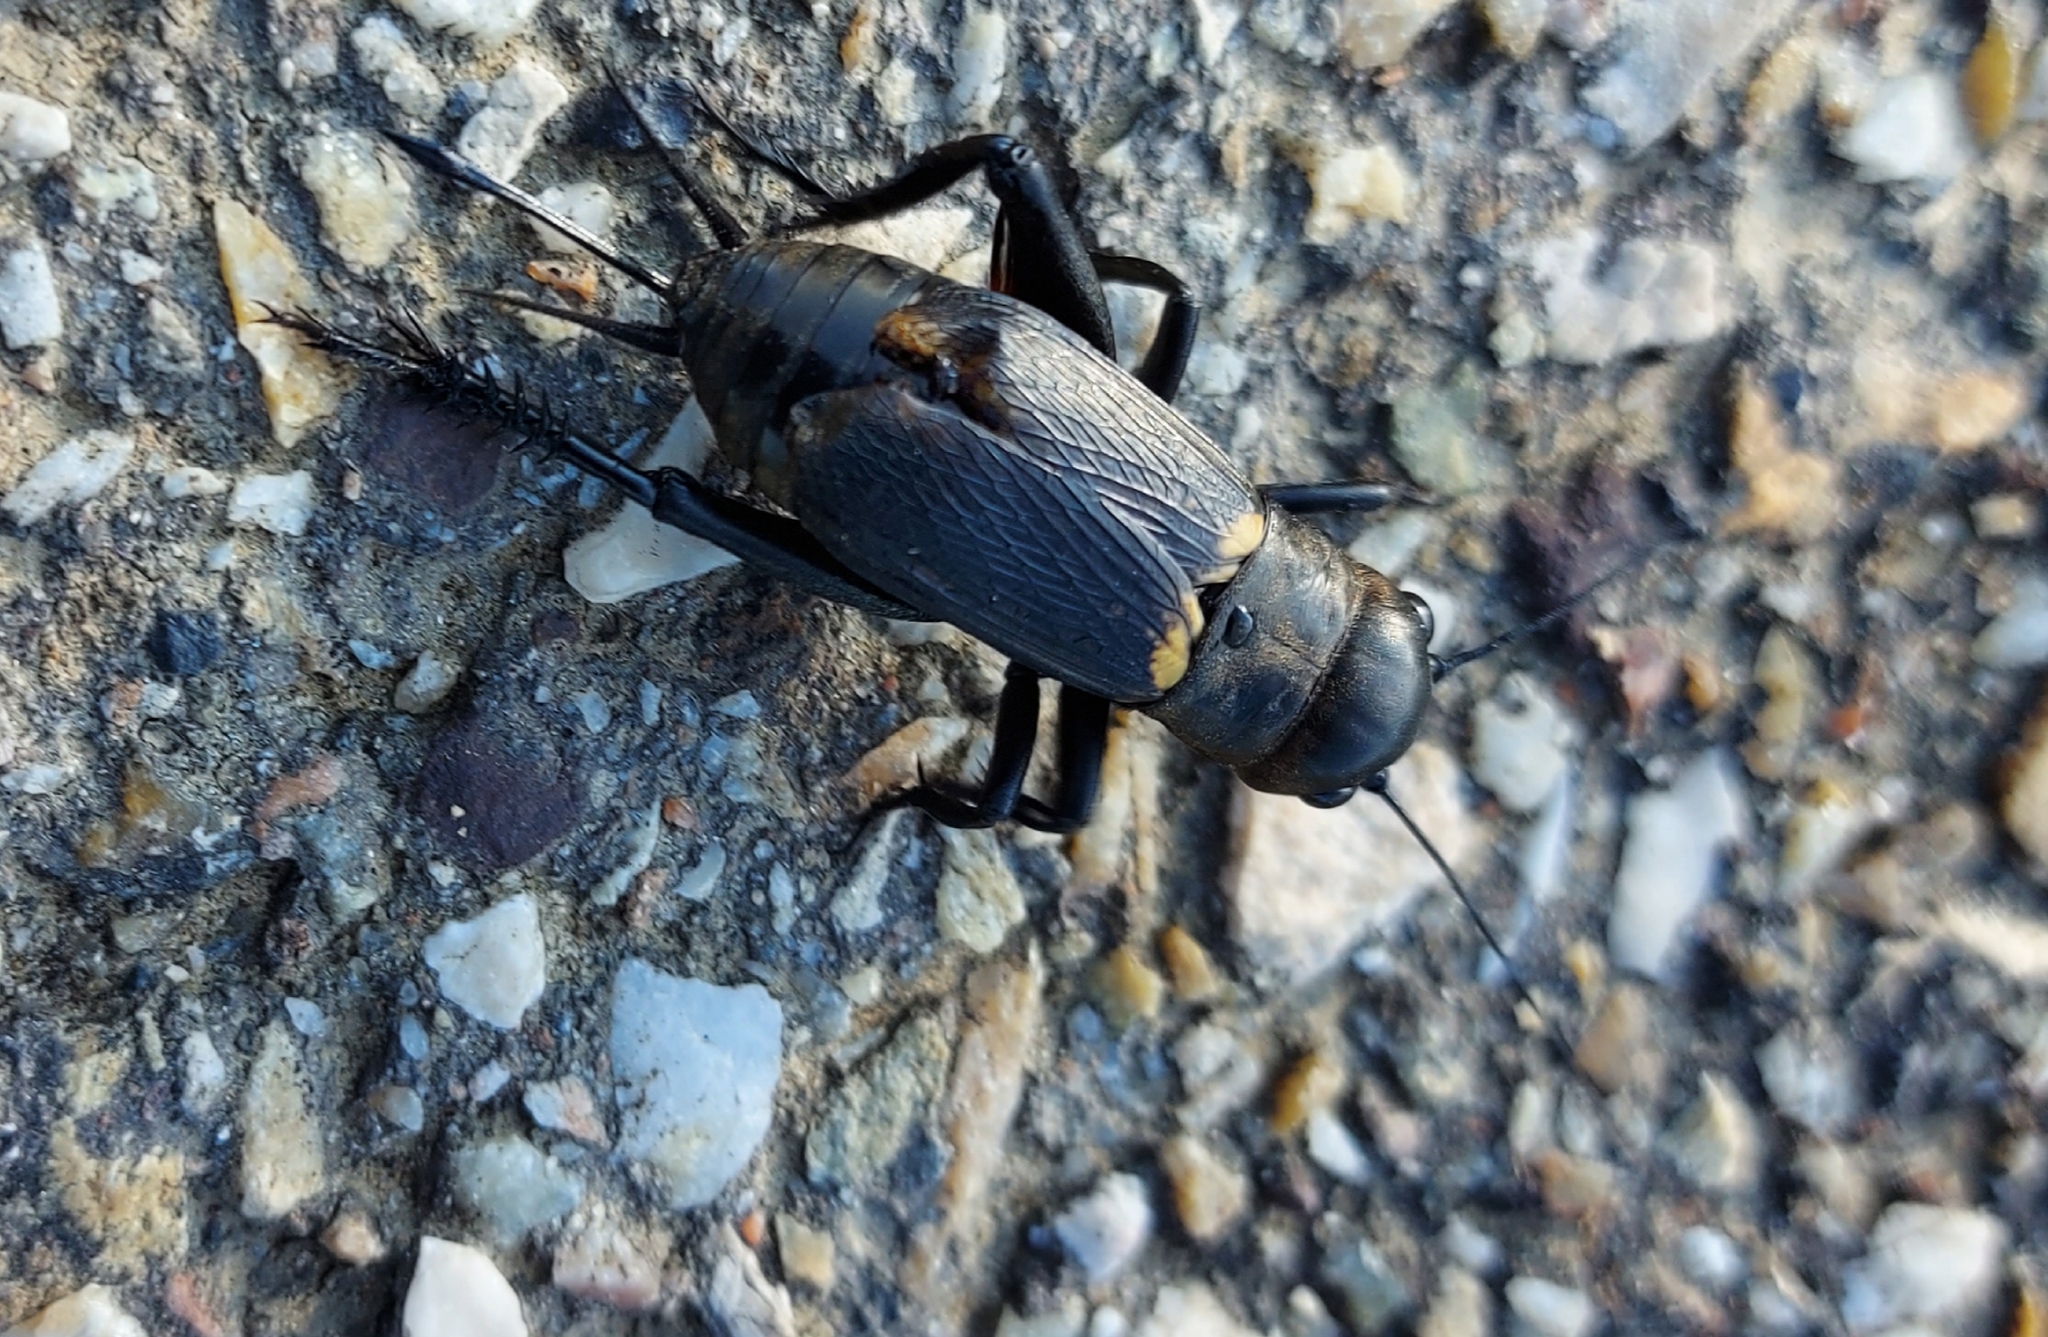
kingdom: Animalia
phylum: Arthropoda
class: Insecta
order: Orthoptera
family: Gryllidae
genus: Gryllus
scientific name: Gryllus campestris
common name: Field cricket
